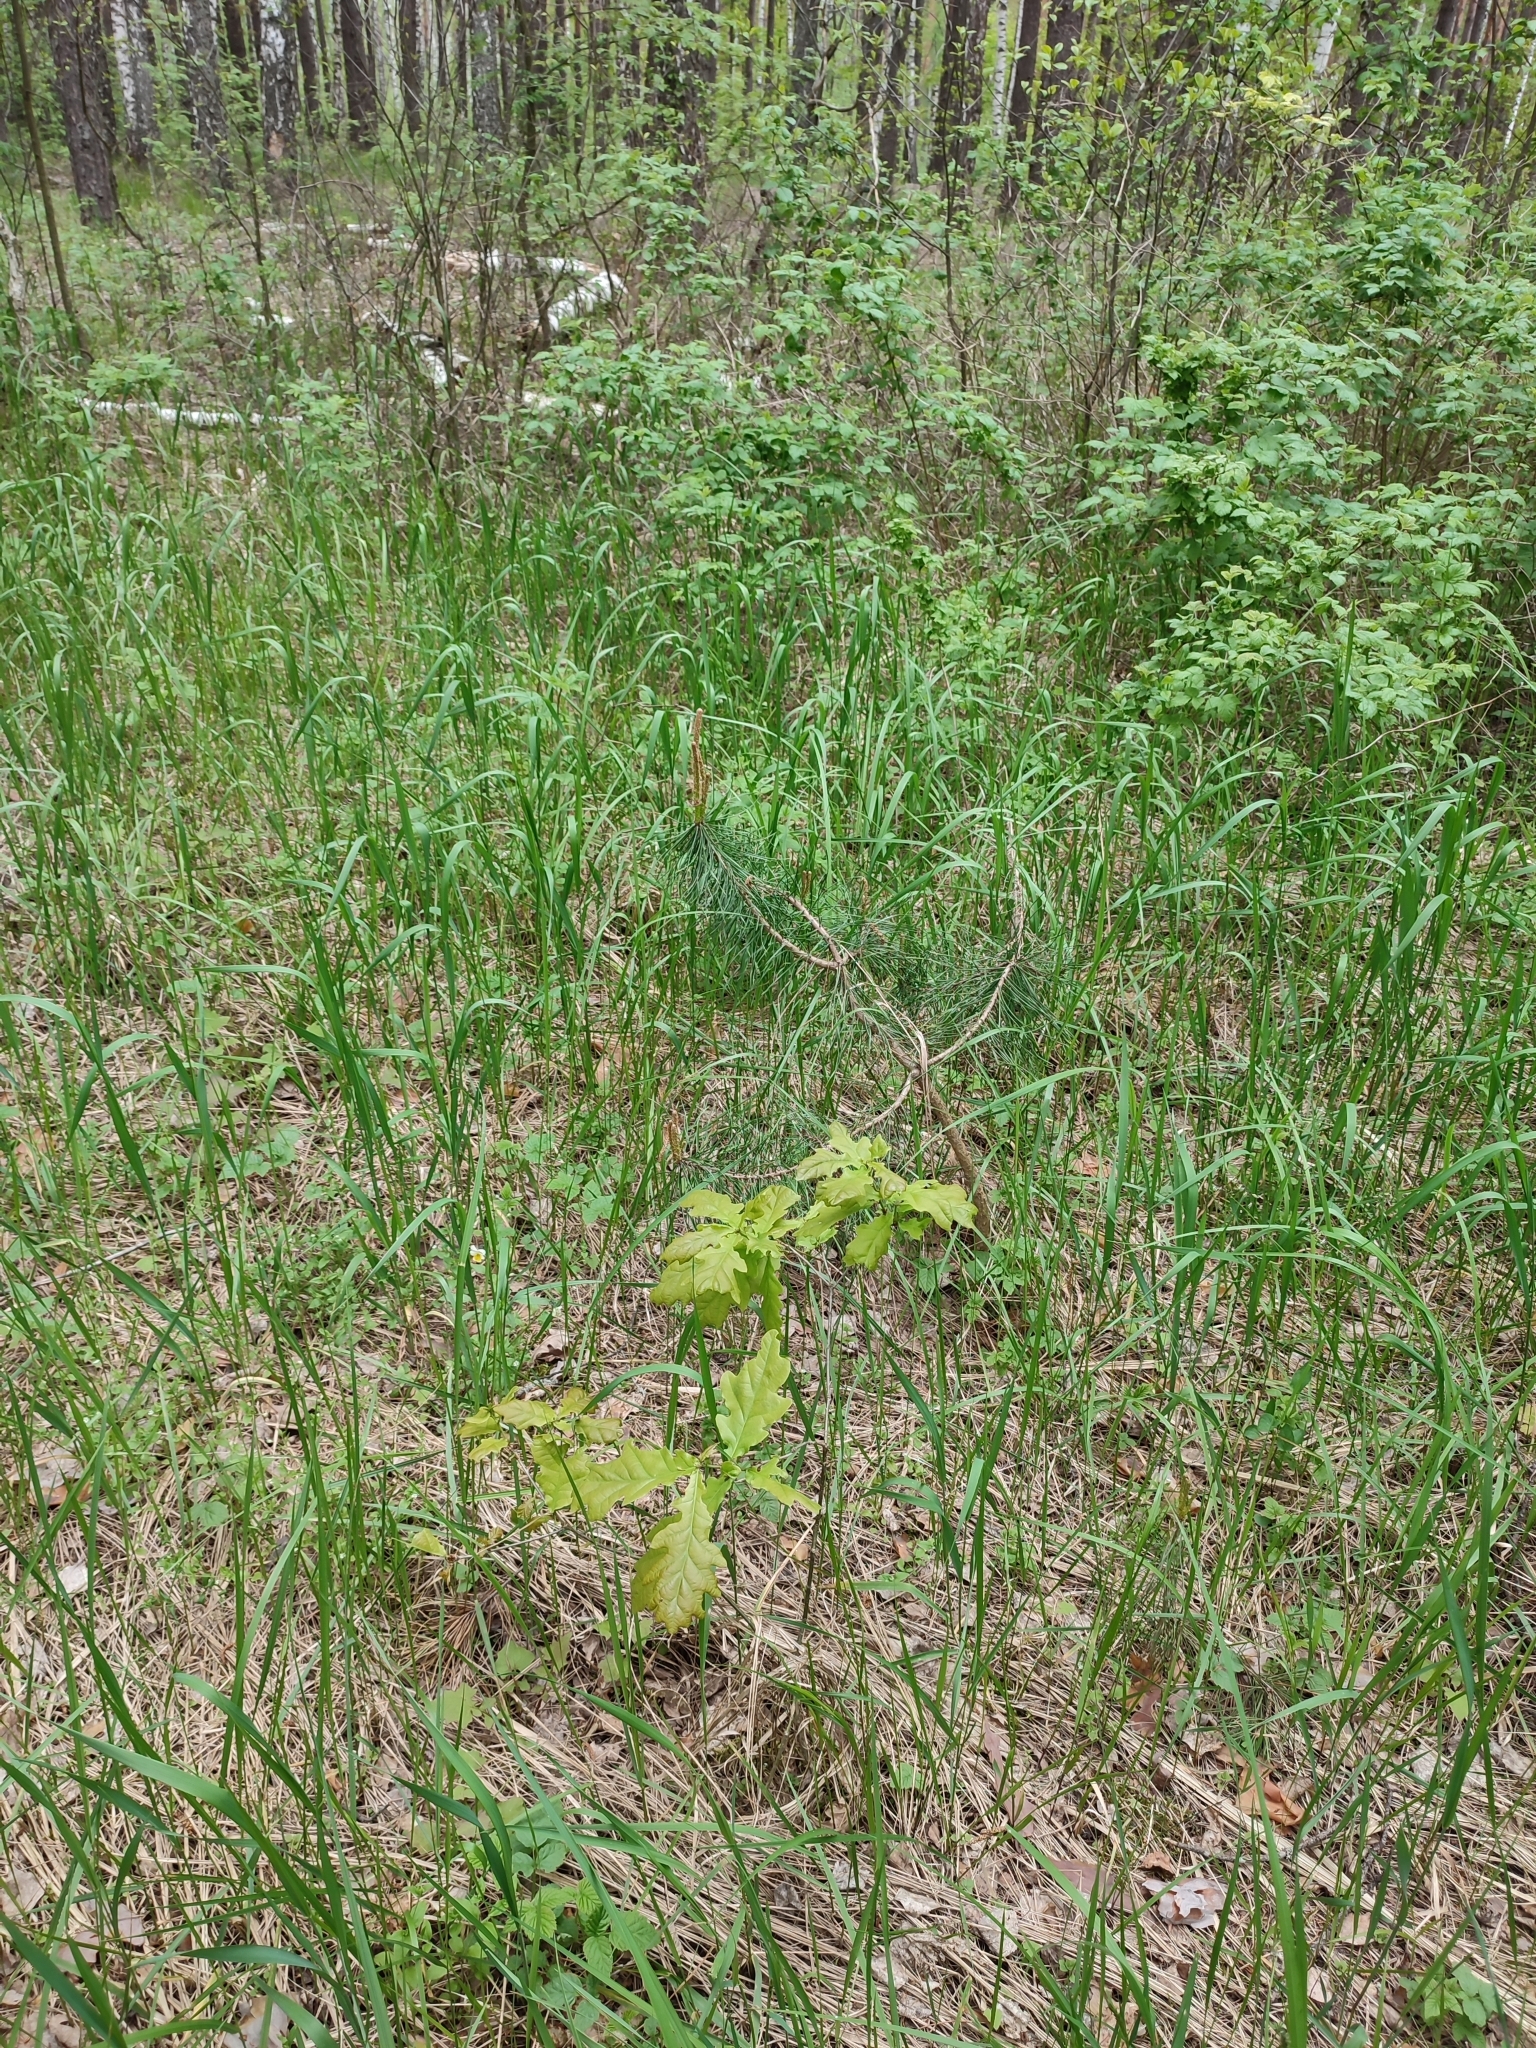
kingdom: Plantae
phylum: Tracheophyta
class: Magnoliopsida
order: Fagales
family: Fagaceae
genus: Quercus
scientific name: Quercus robur
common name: Pedunculate oak
